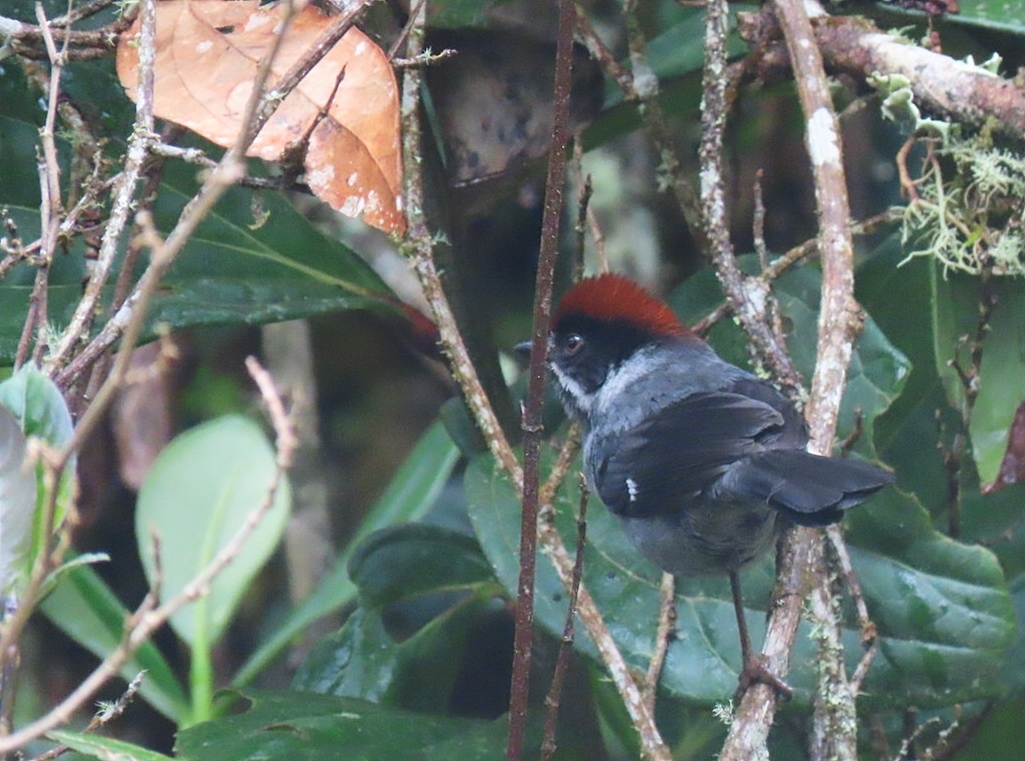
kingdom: Animalia
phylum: Chordata
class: Aves
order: Passeriformes
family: Passerellidae
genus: Atlapetes
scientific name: Atlapetes schistaceus
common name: Slaty brushfinch
